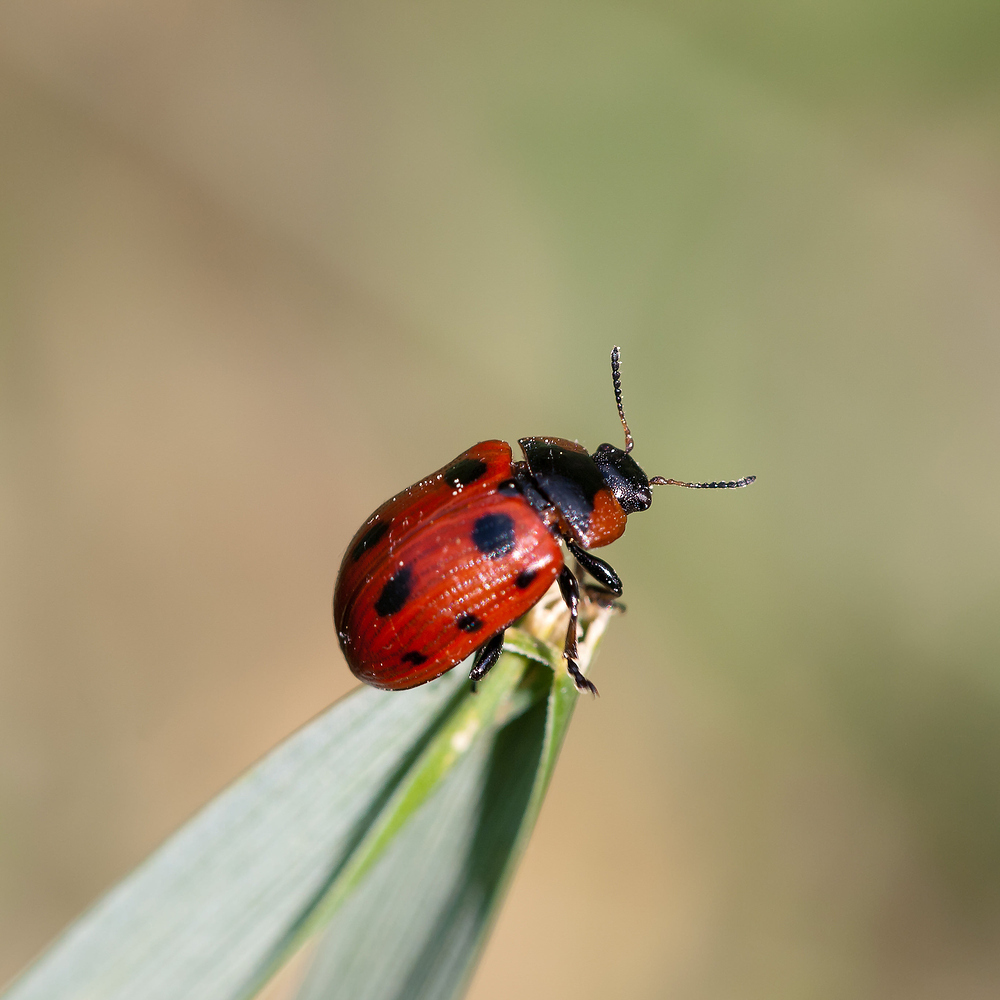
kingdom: Animalia
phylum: Arthropoda
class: Insecta
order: Coleoptera
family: Chrysomelidae
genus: Gonioctena
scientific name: Gonioctena viminalis
